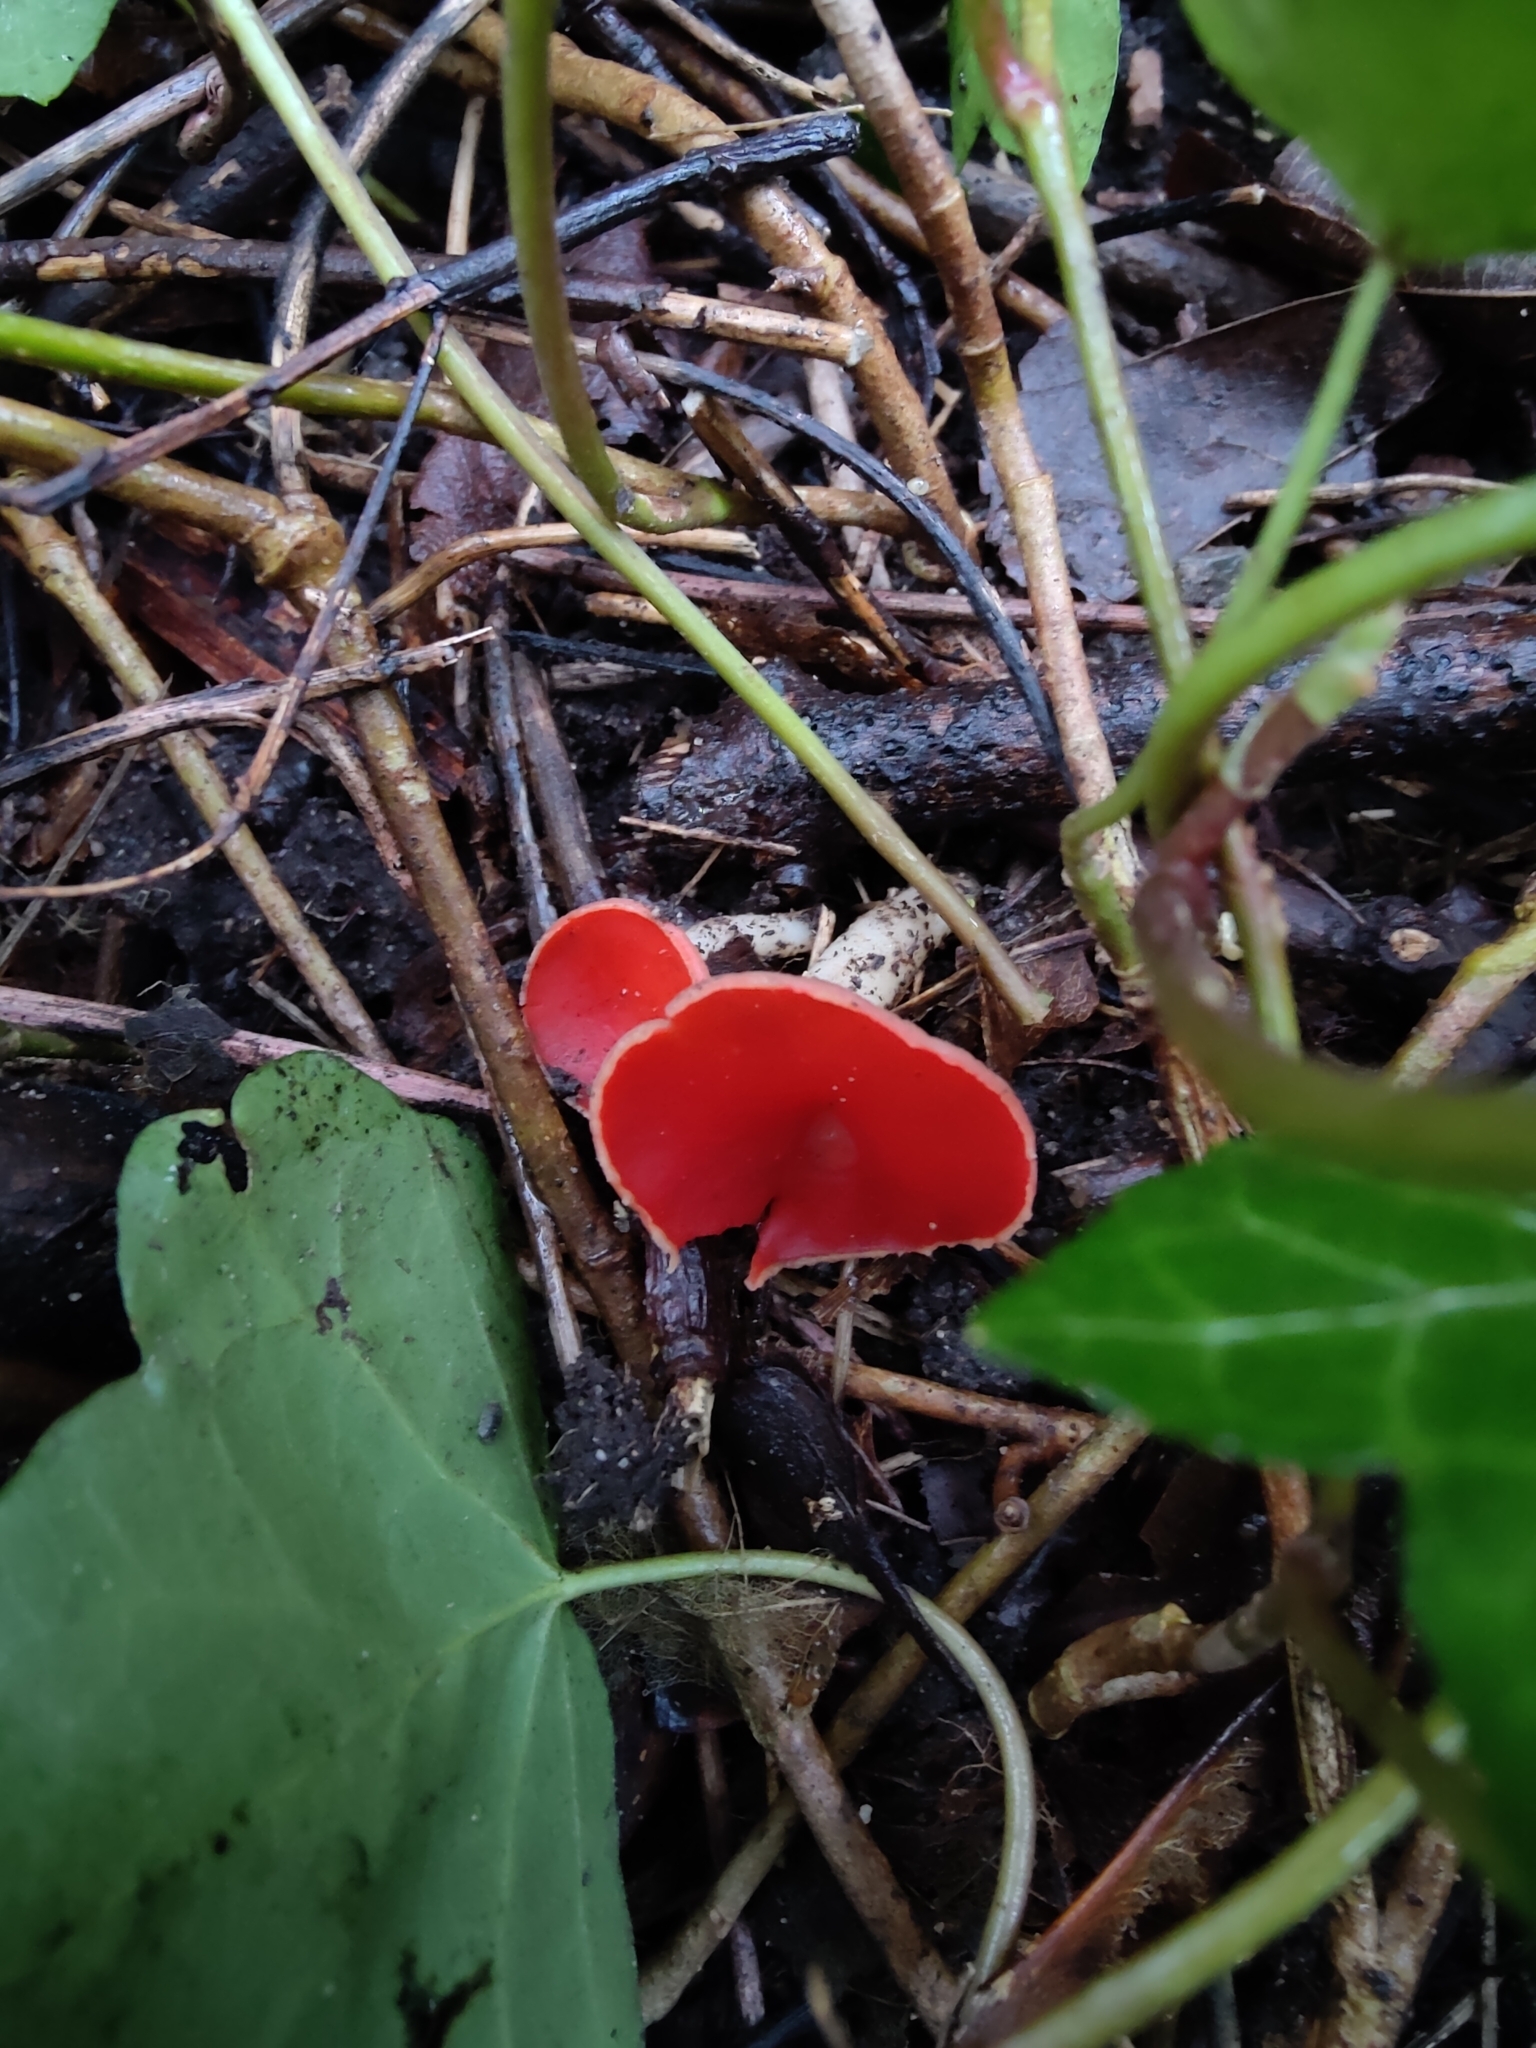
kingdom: Fungi
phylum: Ascomycota
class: Pezizomycetes
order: Pezizales
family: Sarcoscyphaceae
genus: Sarcoscypha
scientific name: Sarcoscypha
